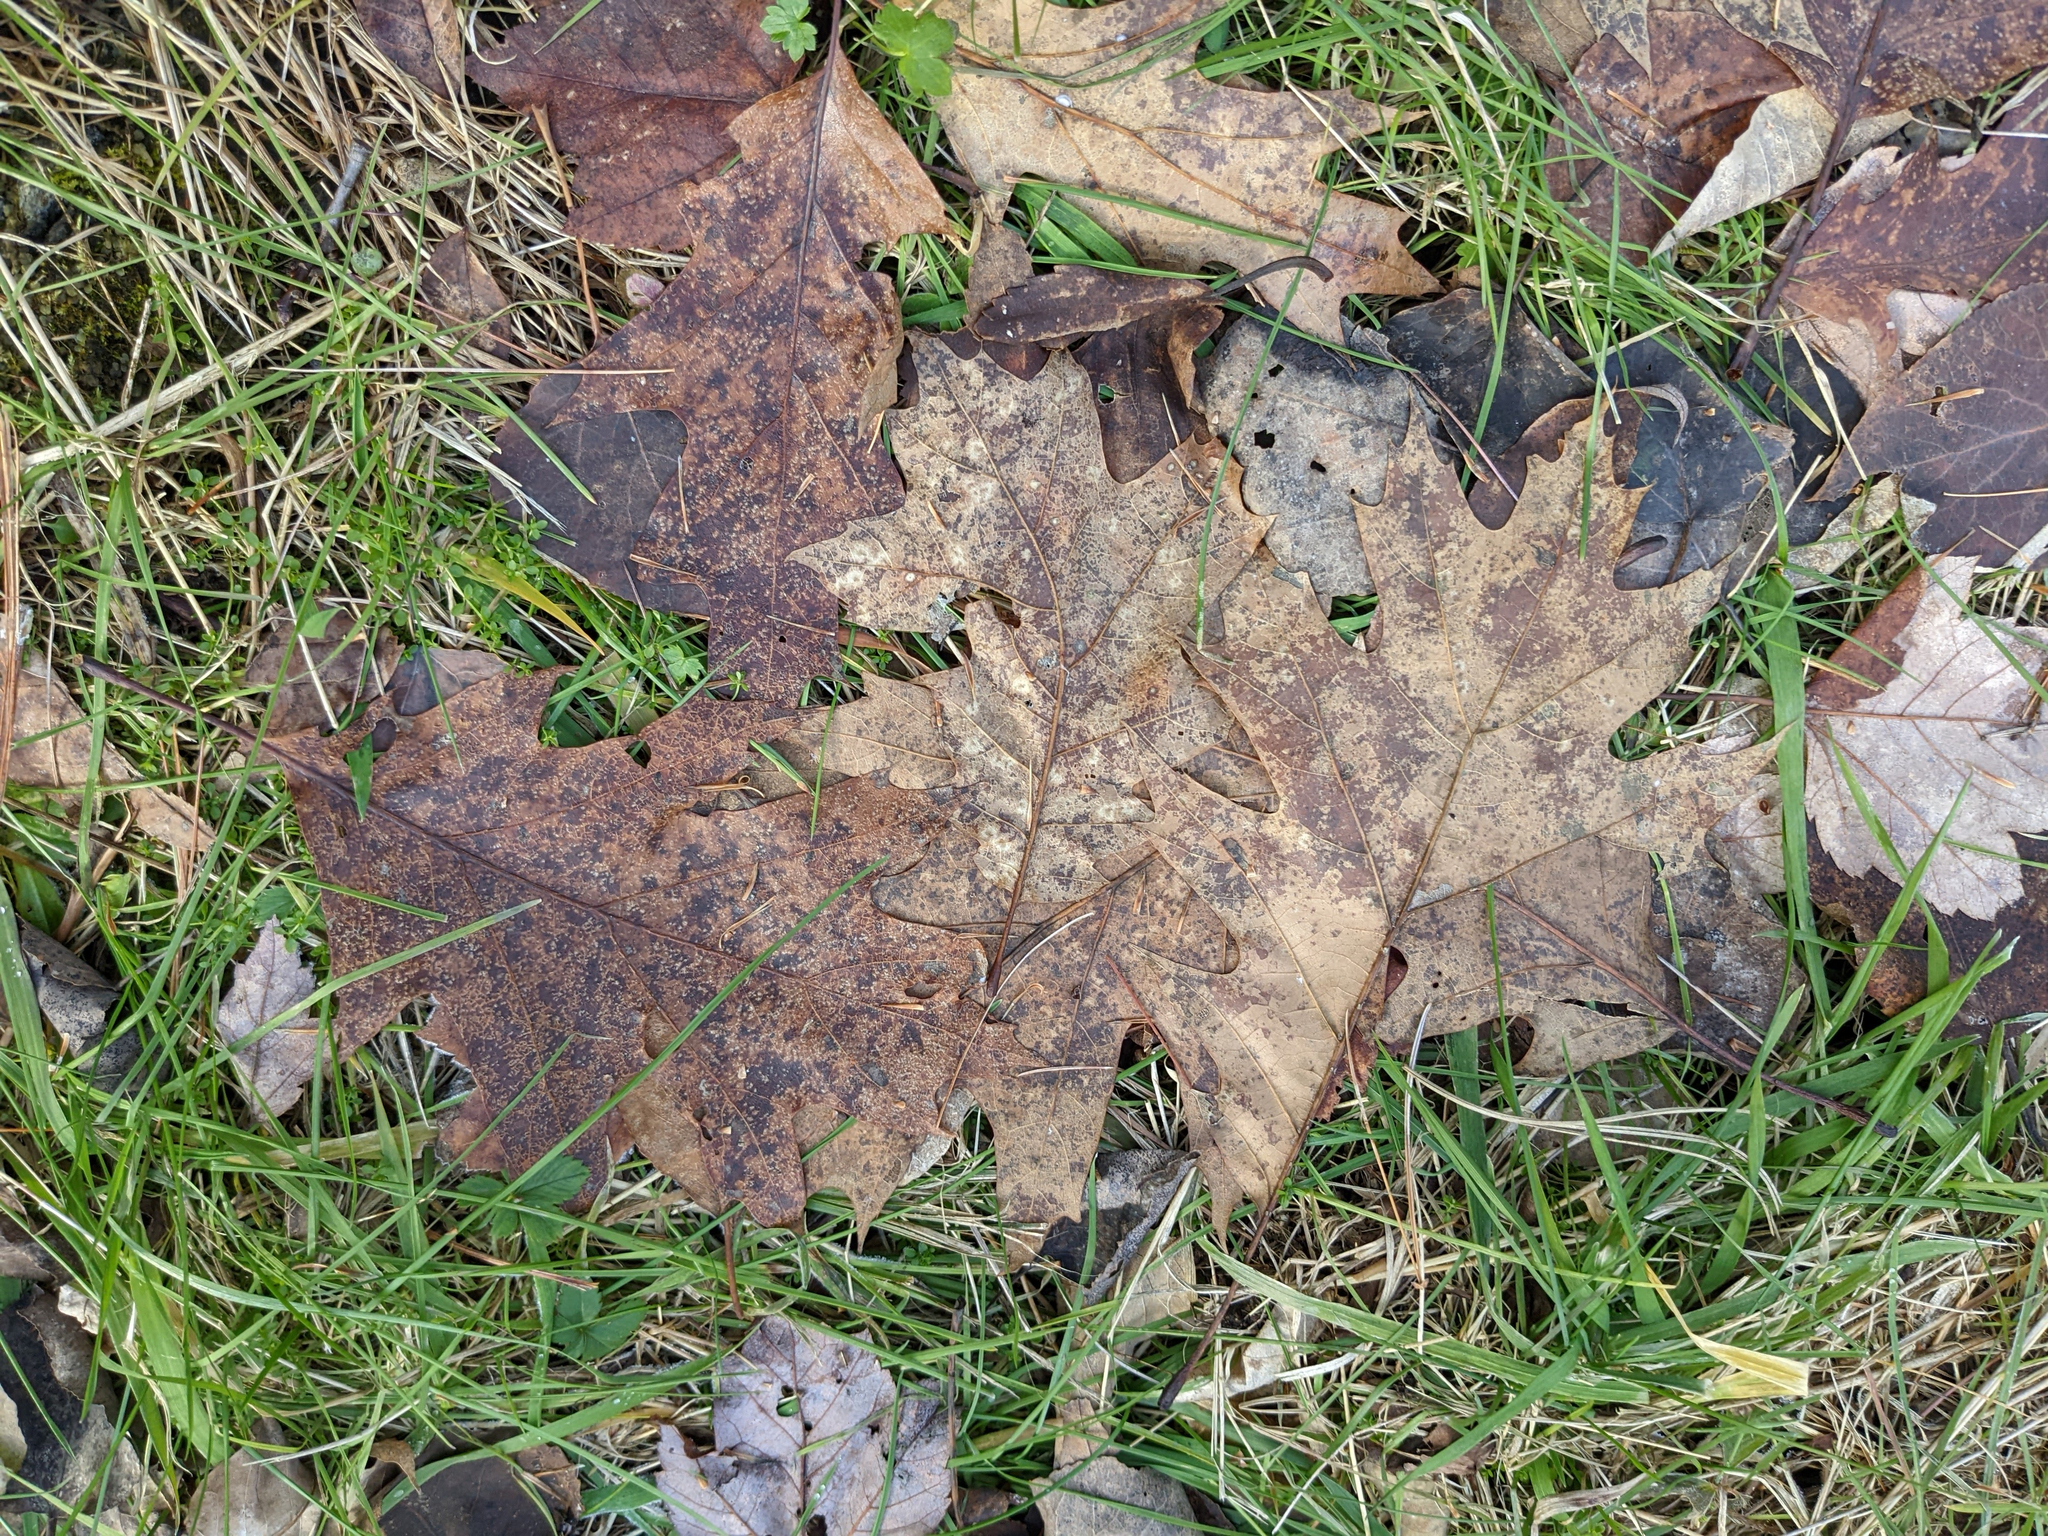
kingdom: Plantae
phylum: Tracheophyta
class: Magnoliopsida
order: Fagales
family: Fagaceae
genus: Quercus
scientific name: Quercus rubra
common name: Red oak
